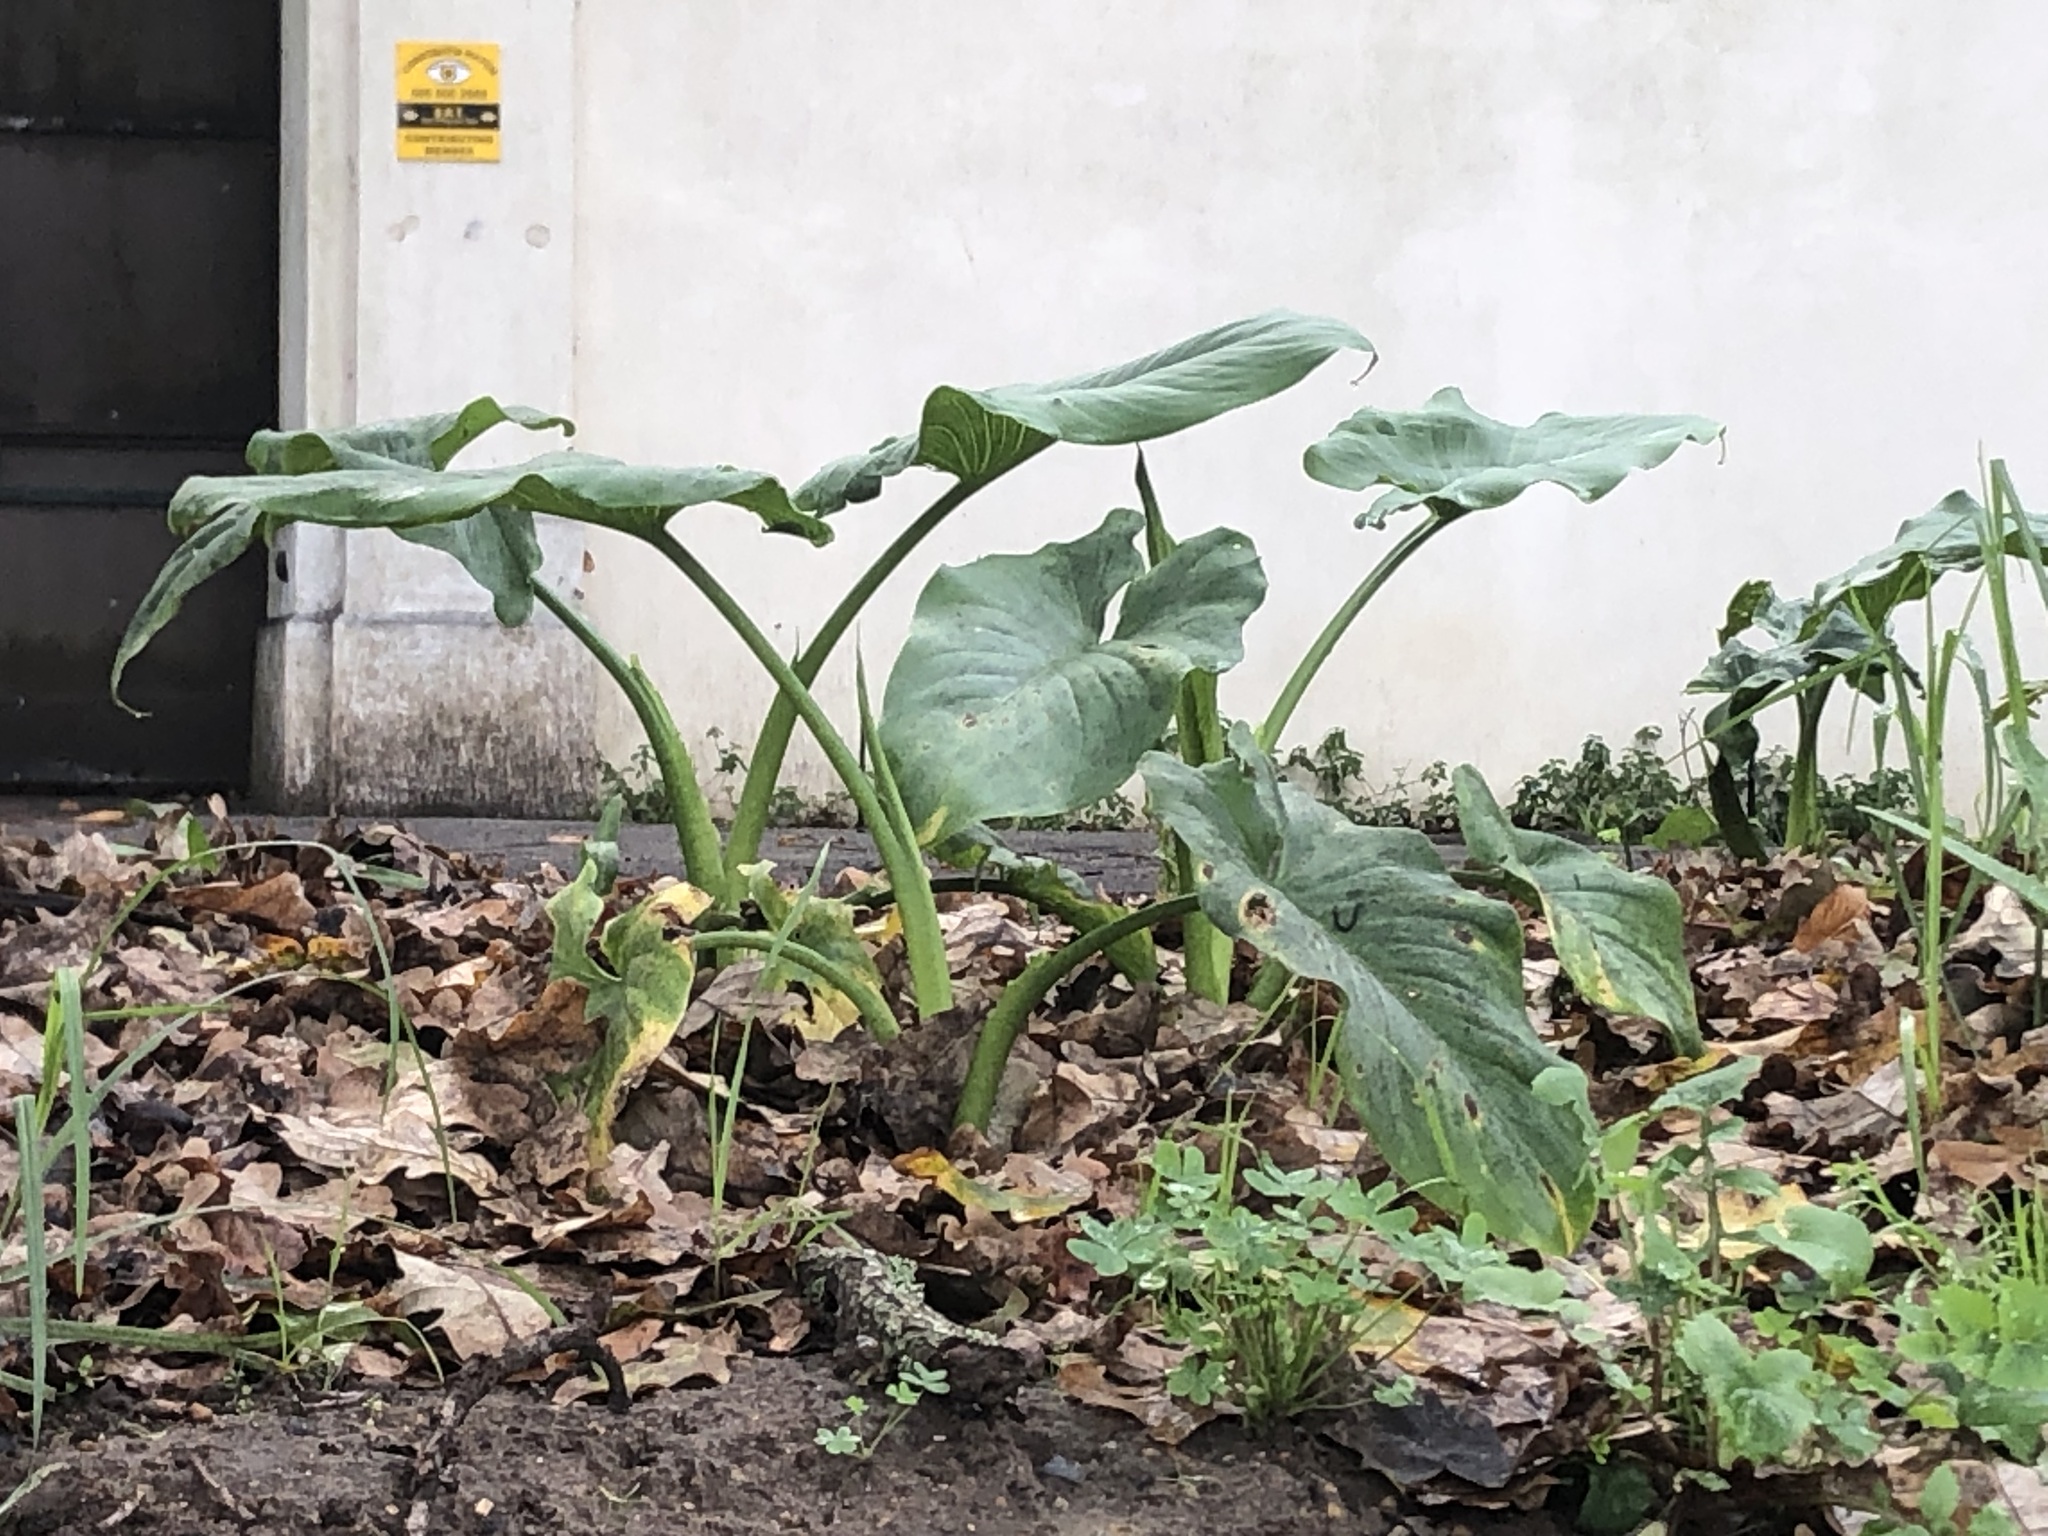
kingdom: Plantae
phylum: Tracheophyta
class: Liliopsida
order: Alismatales
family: Araceae
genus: Zantedeschia
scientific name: Zantedeschia aethiopica
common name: Altar-lily
